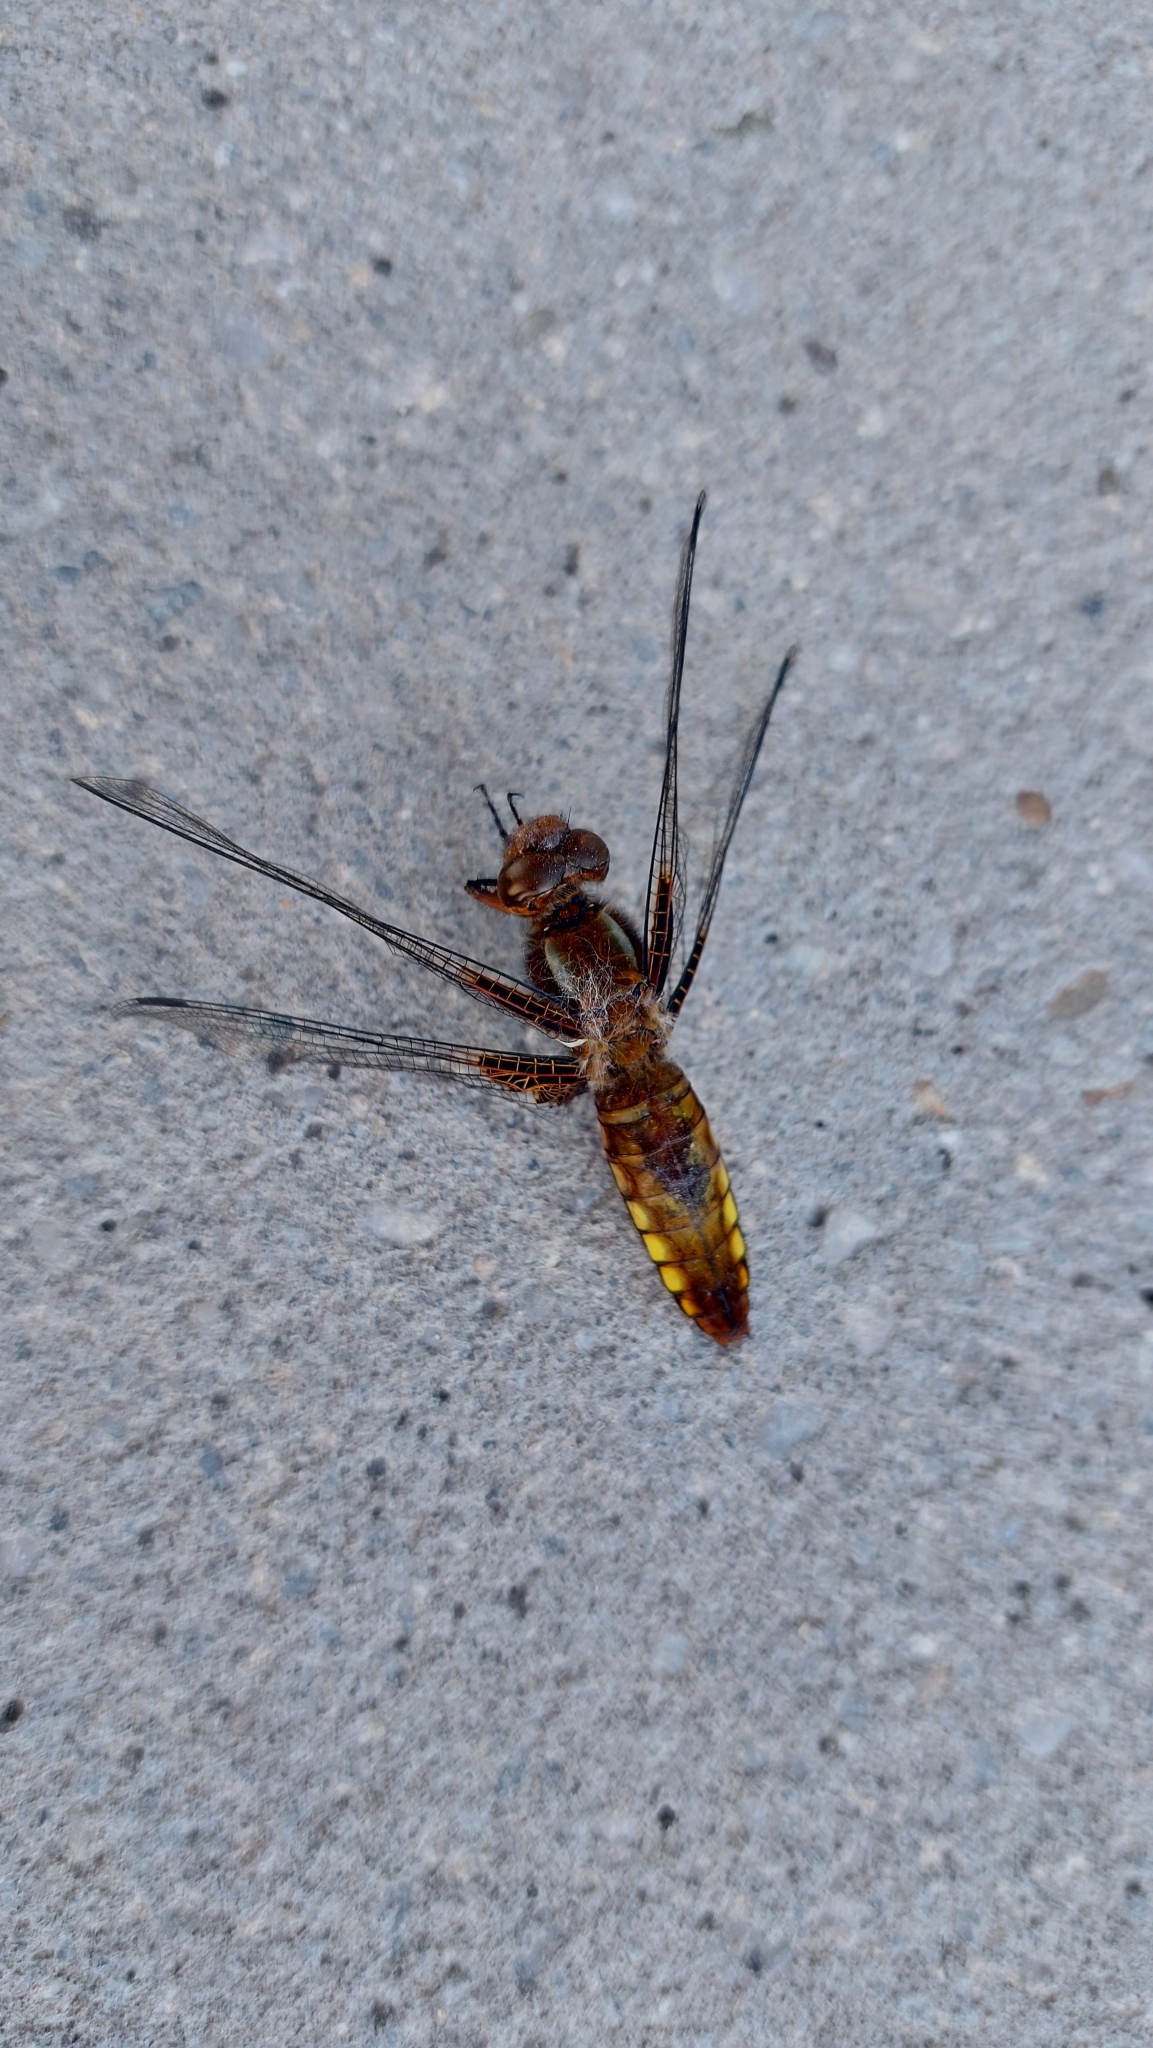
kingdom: Animalia
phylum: Arthropoda
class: Insecta
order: Odonata
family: Libellulidae
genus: Libellula
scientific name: Libellula depressa
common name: Broad-bodied chaser
